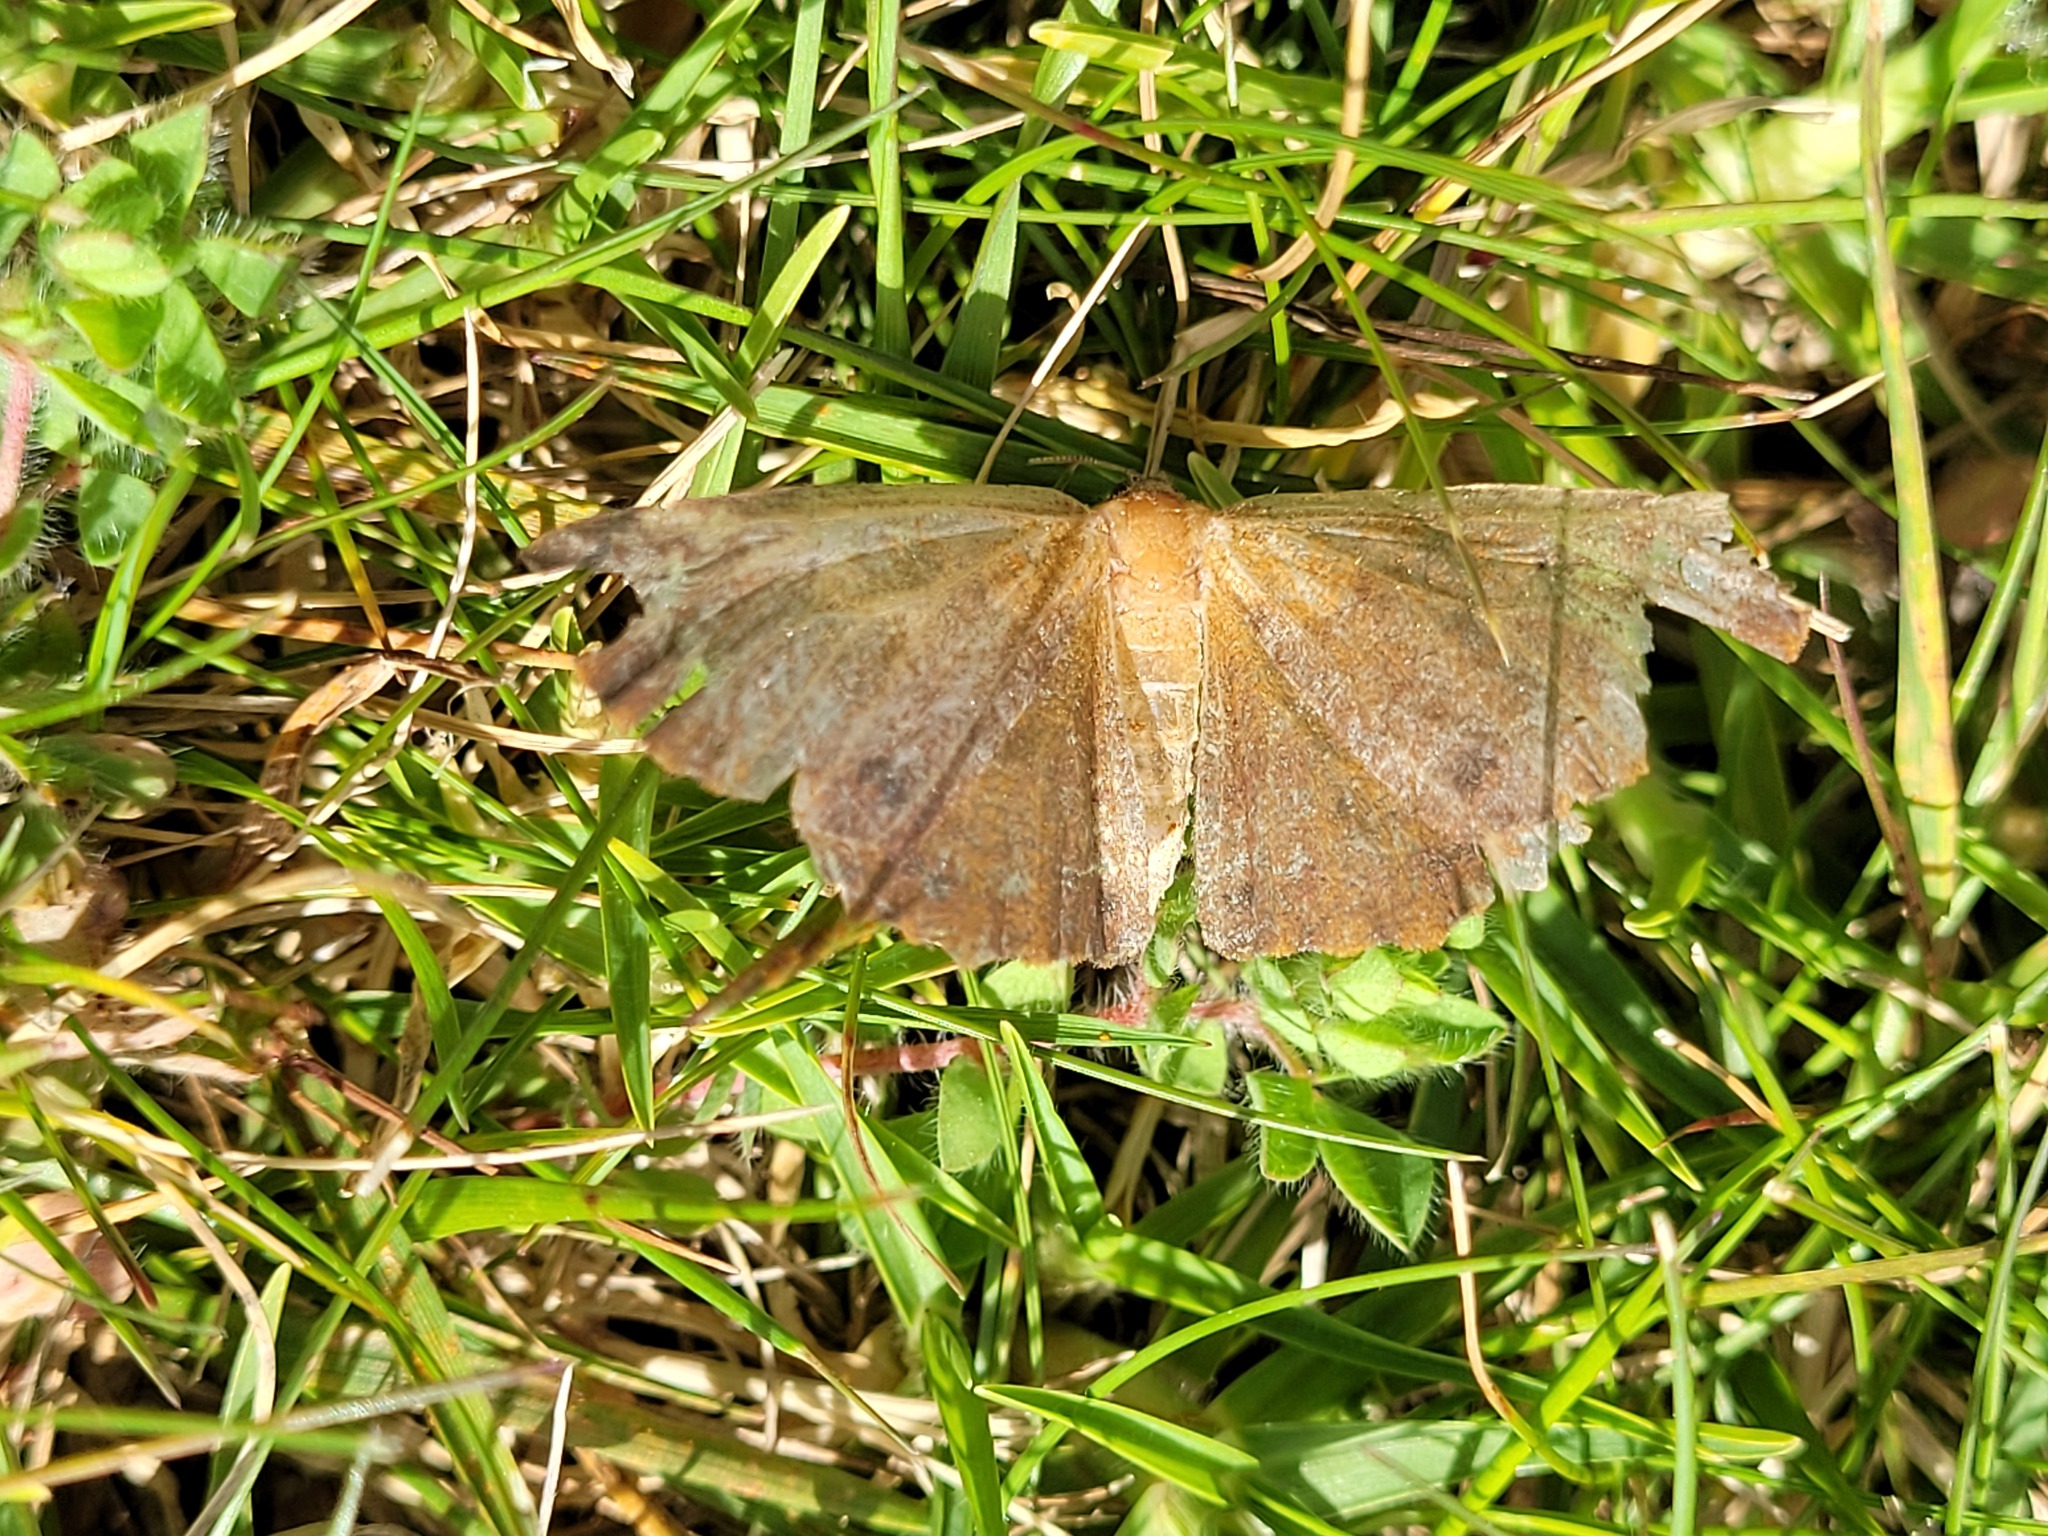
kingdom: Animalia
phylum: Arthropoda
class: Insecta
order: Lepidoptera
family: Geometridae
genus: Xyridacma
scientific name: Xyridacma ustaria
